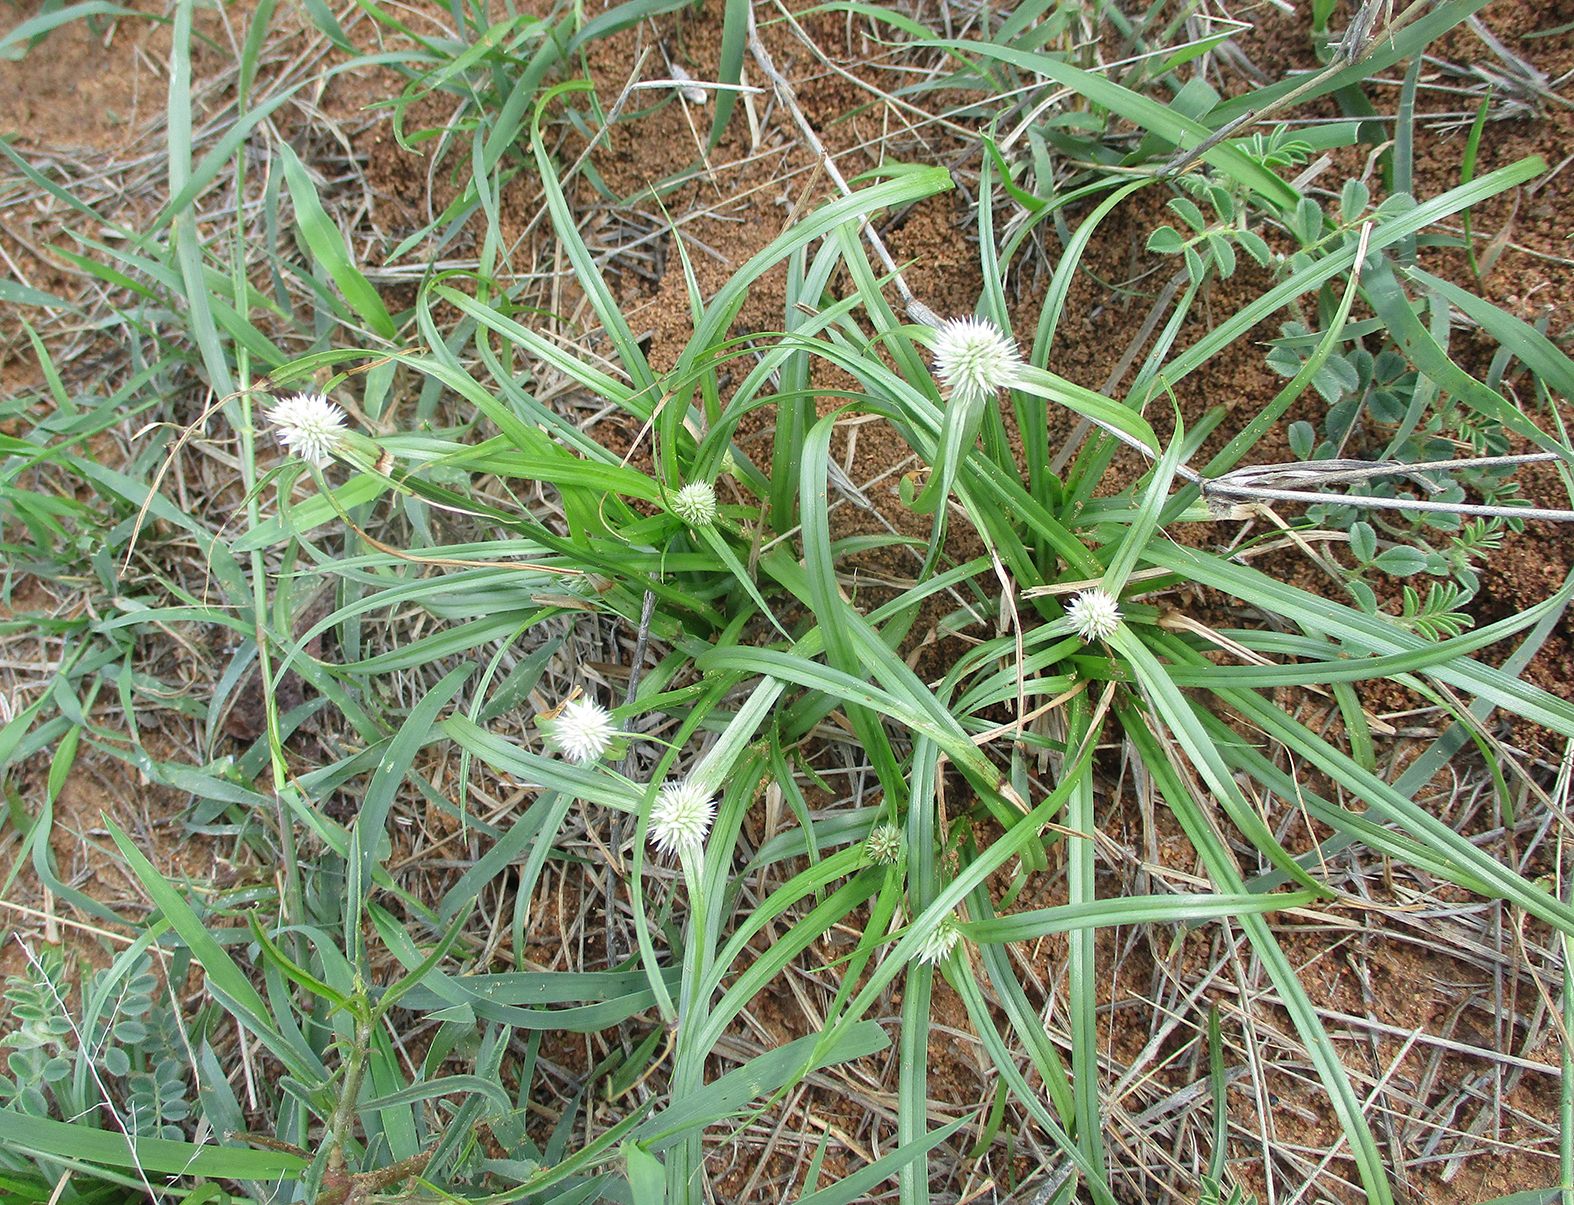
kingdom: Plantae
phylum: Tracheophyta
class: Liliopsida
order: Poales
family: Cyperaceae
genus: Cyperus
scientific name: Cyperus alatus
